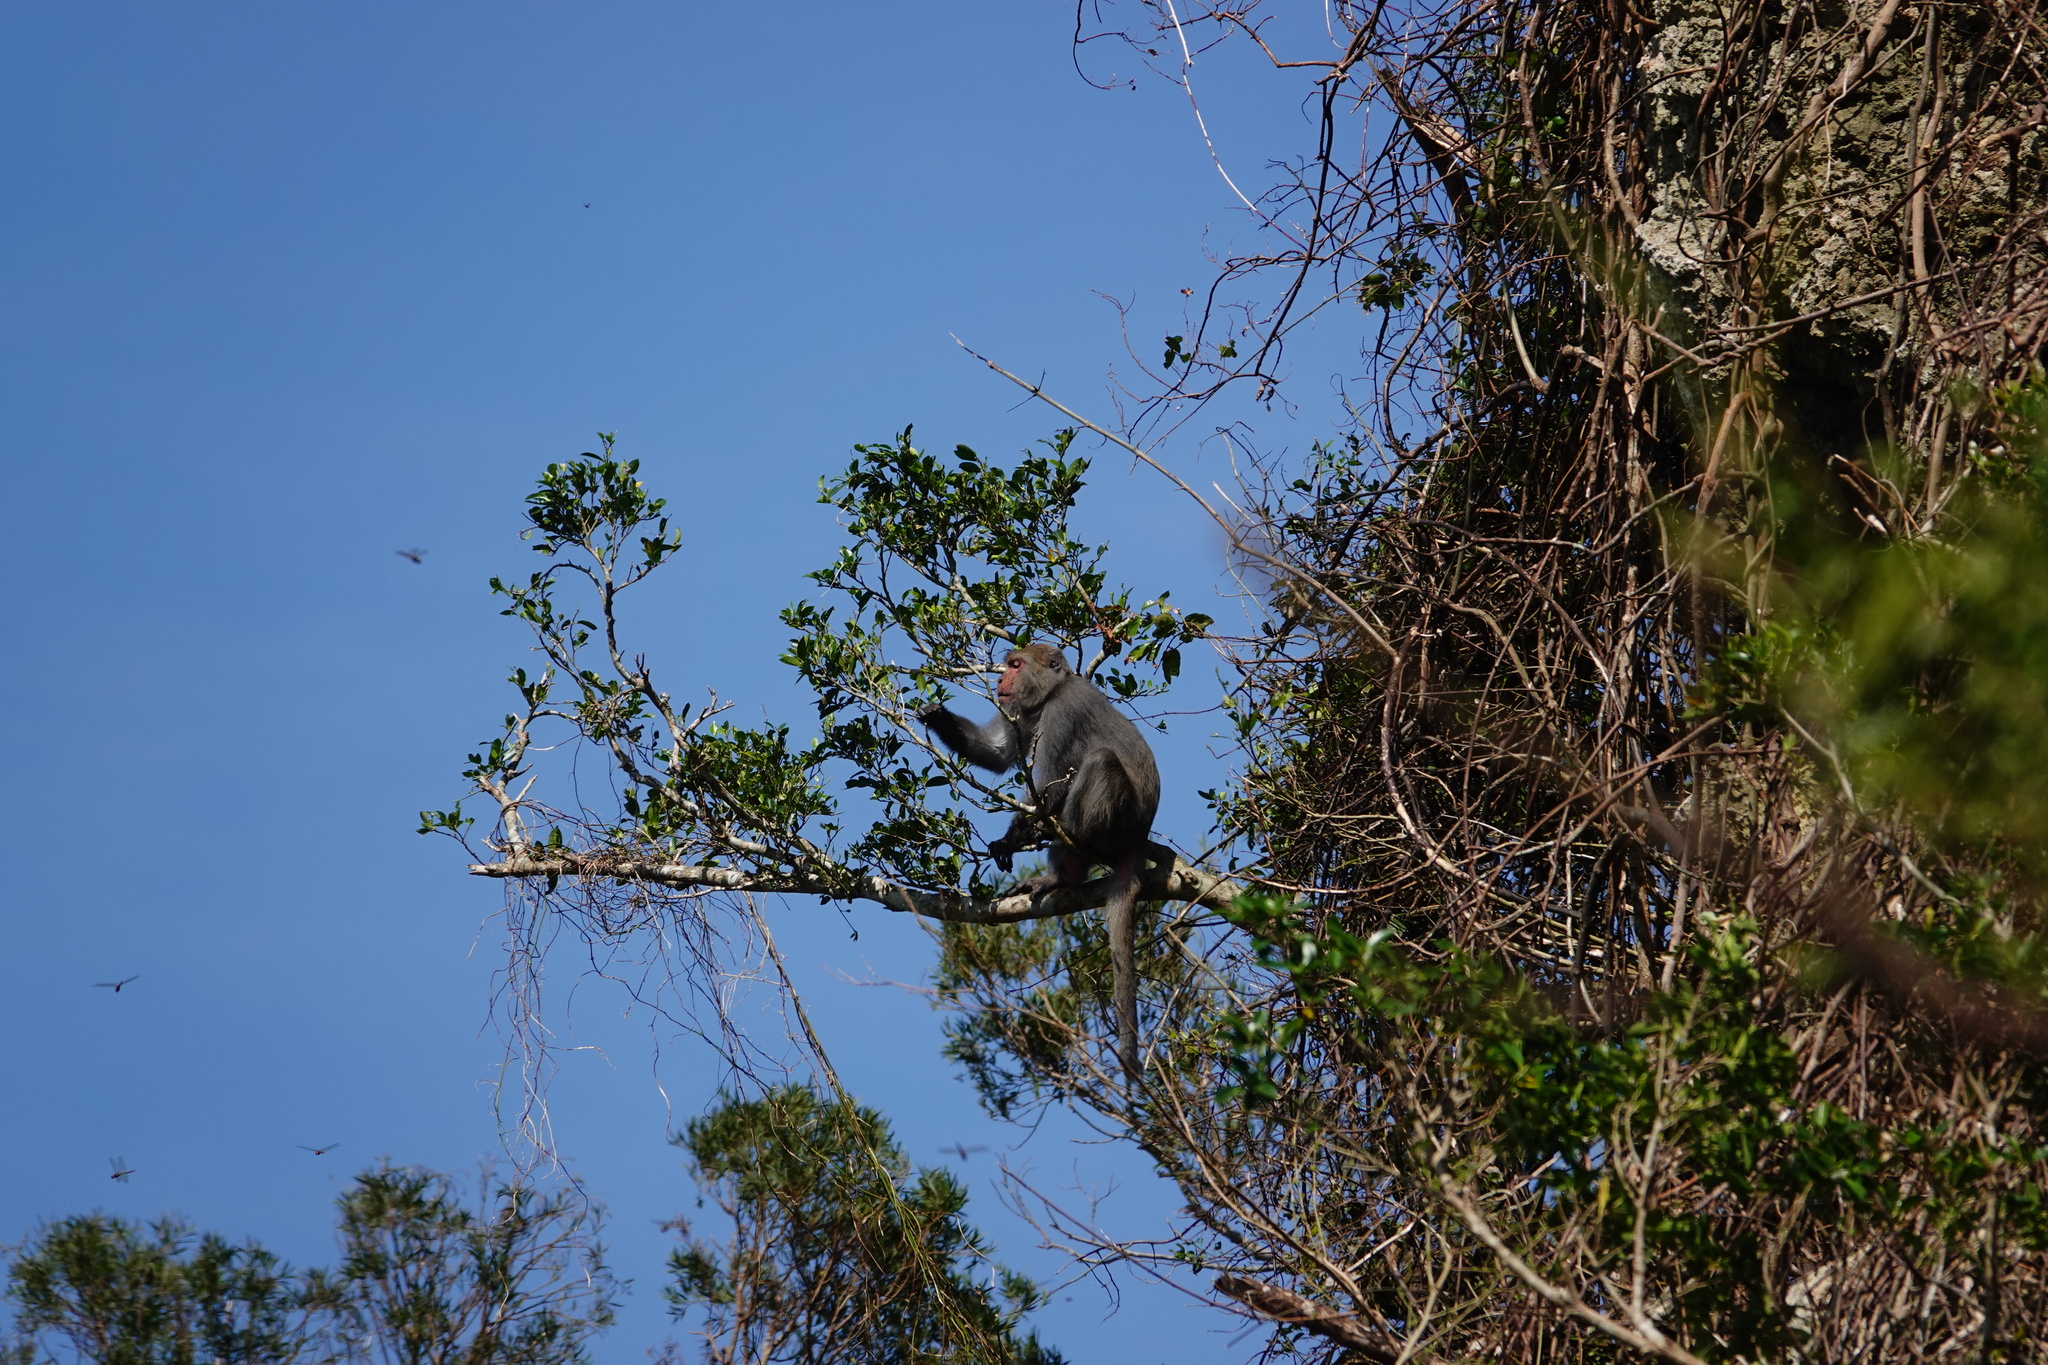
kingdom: Animalia
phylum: Chordata
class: Mammalia
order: Primates
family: Cercopithecidae
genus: Macaca
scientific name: Macaca cyclopis
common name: Formosan rock macaque
